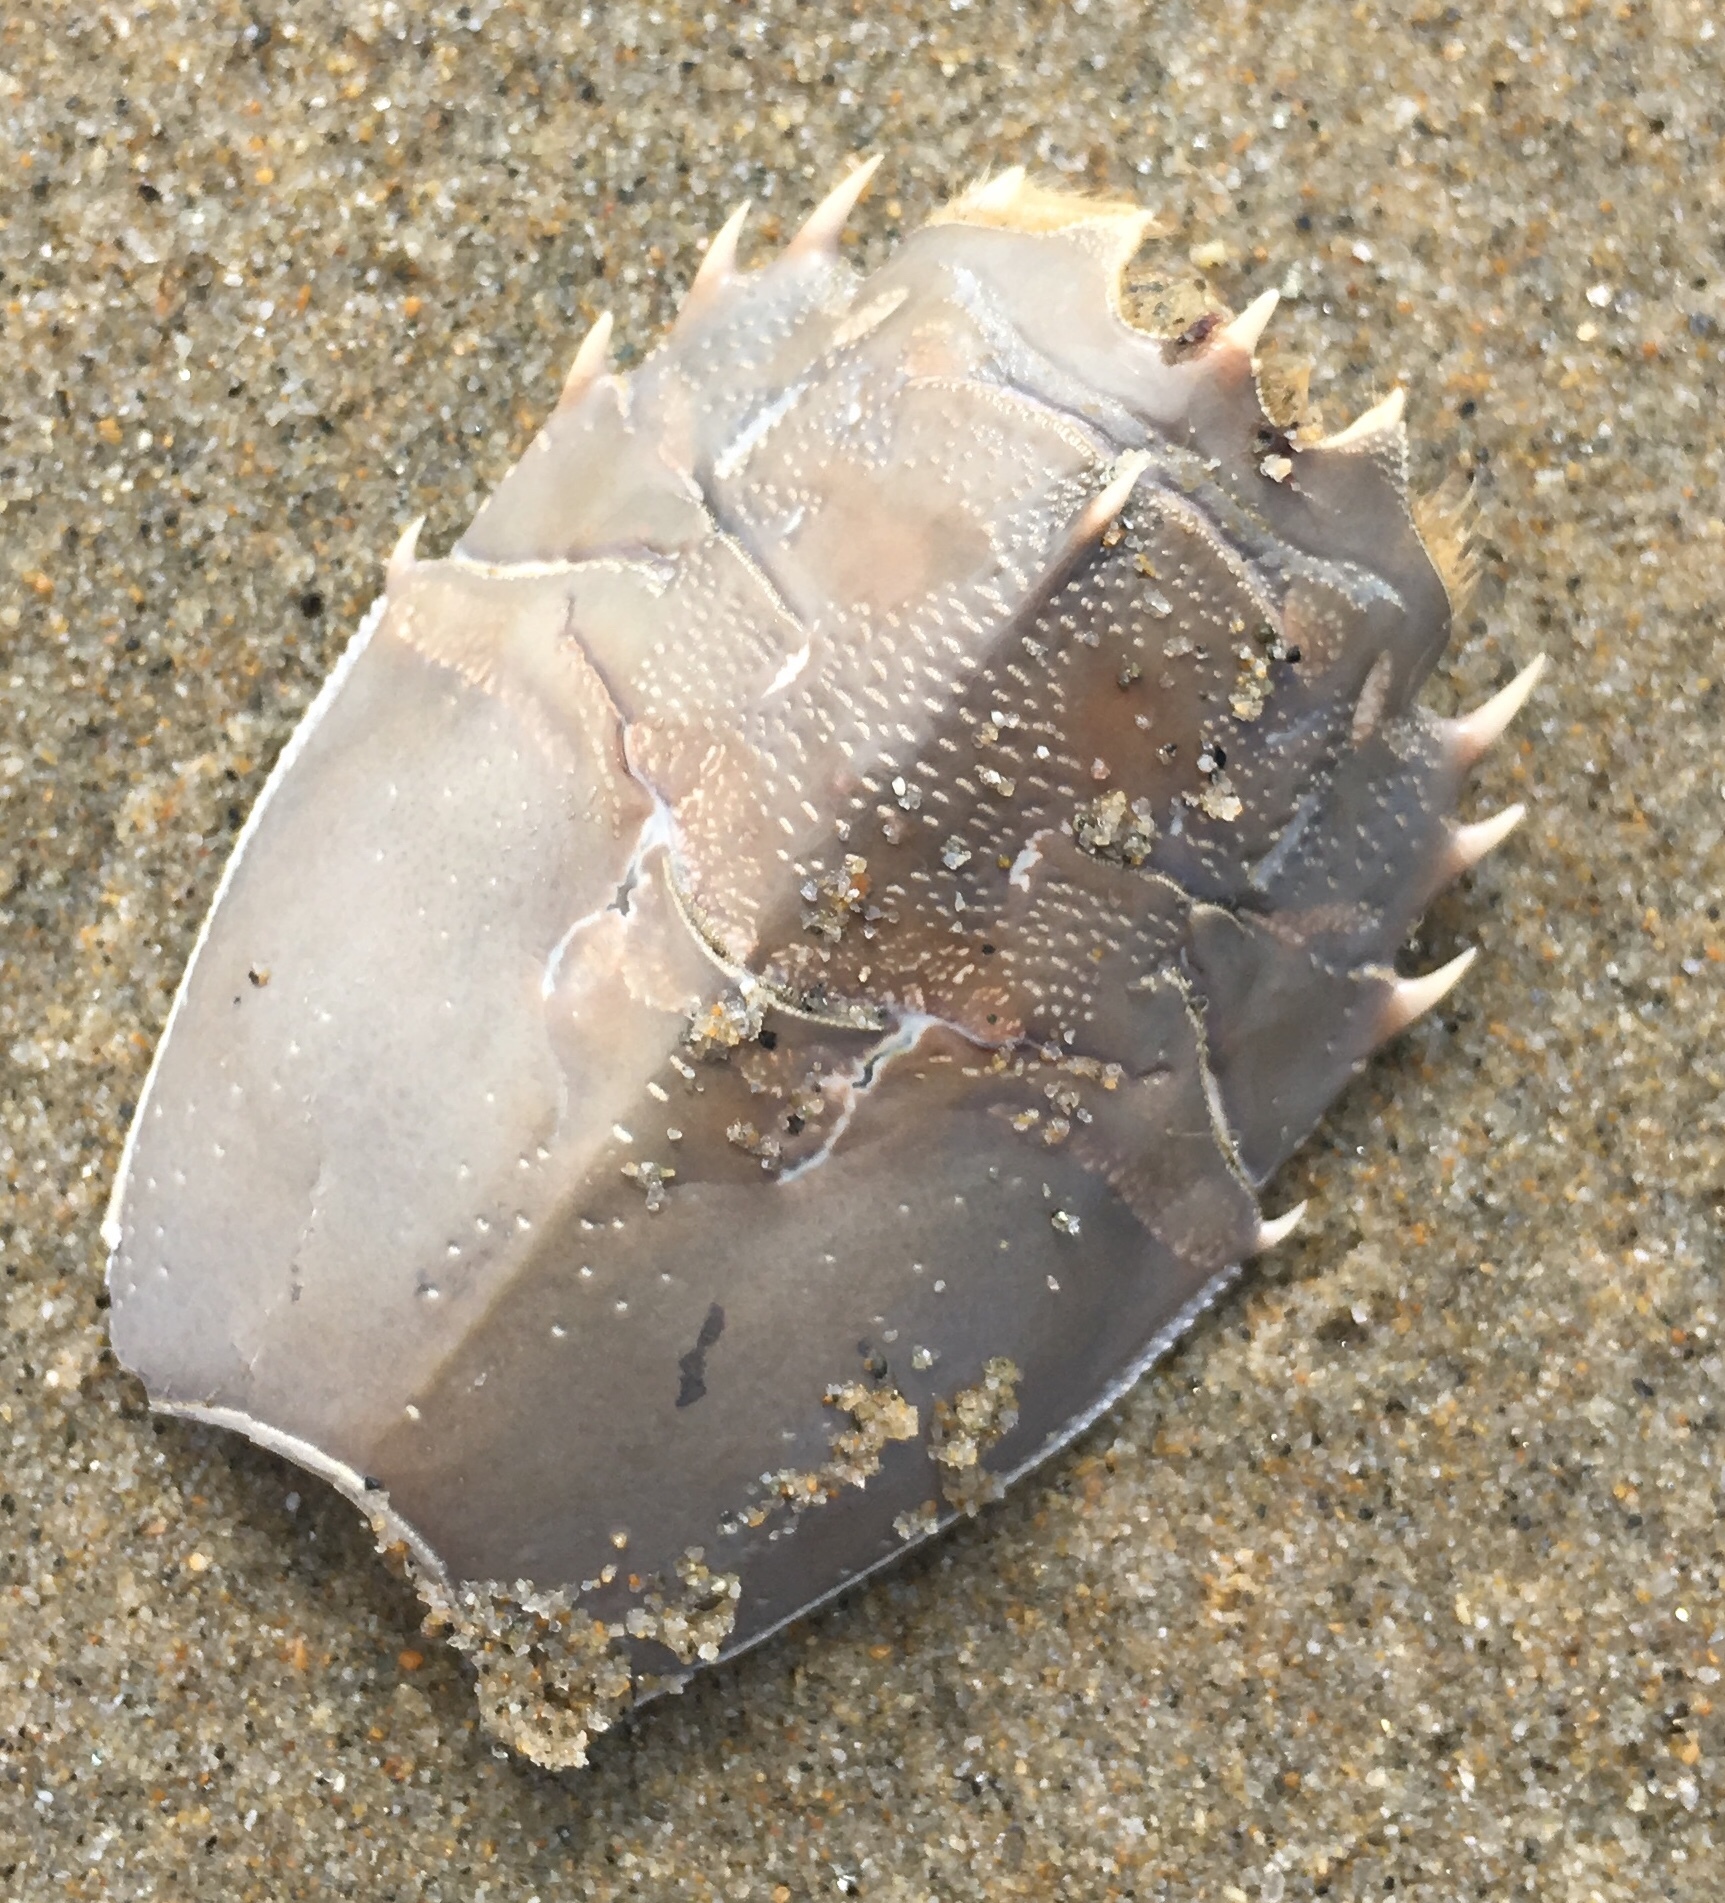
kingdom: Animalia
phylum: Arthropoda
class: Malacostraca
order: Decapoda
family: Blepharipodidae
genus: Blepharipoda
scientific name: Blepharipoda occidentalis
